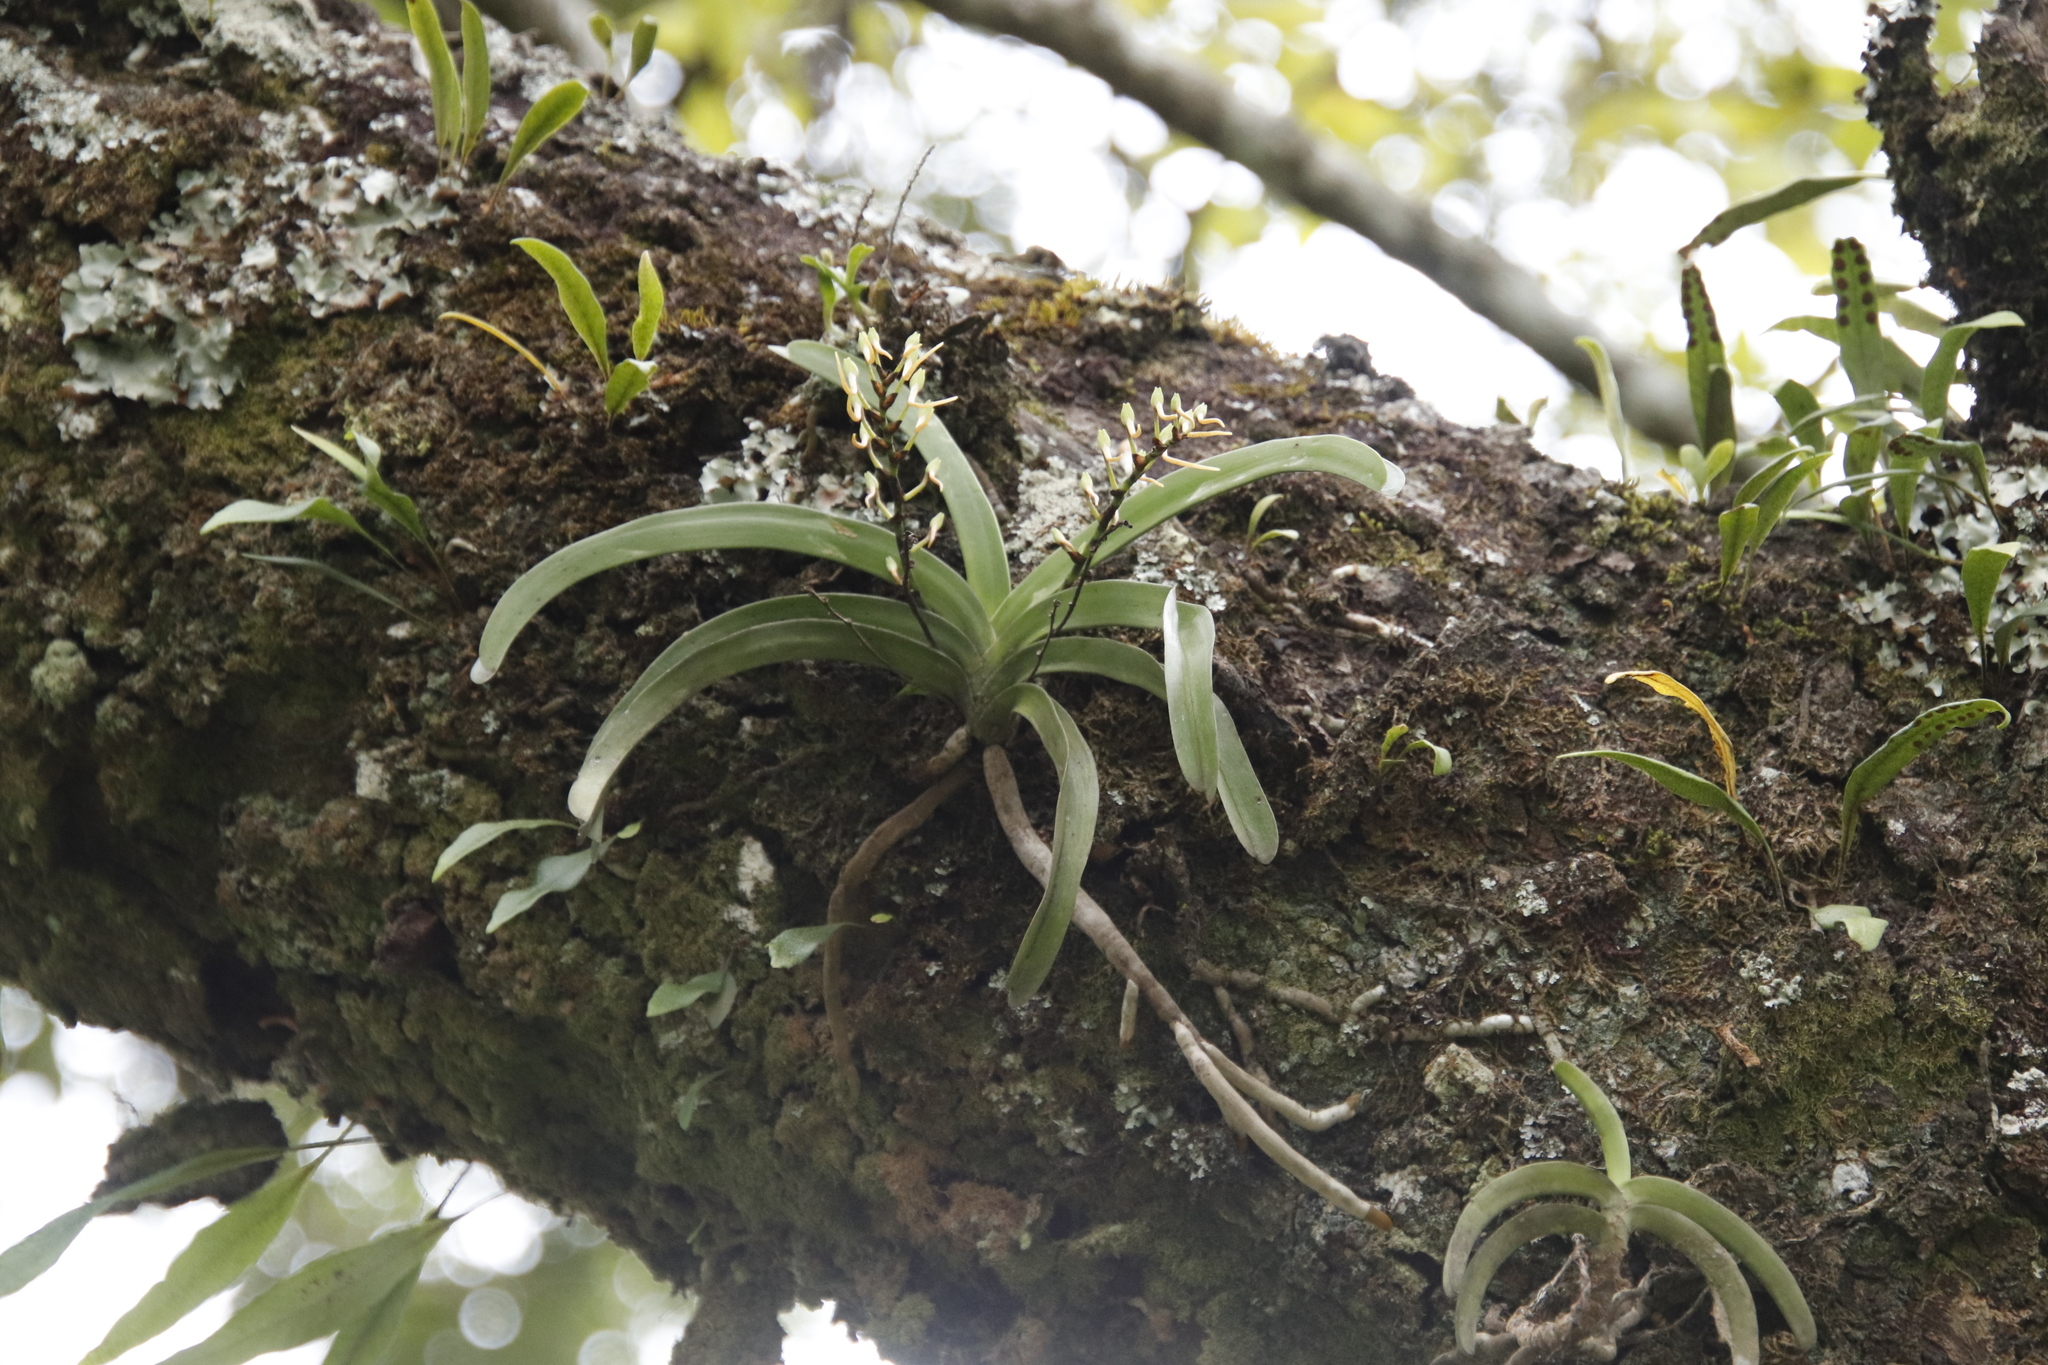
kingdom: Plantae
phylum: Tracheophyta
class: Liliopsida
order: Asparagales
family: Orchidaceae
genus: Rangaeris
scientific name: Rangaeris muscicola
